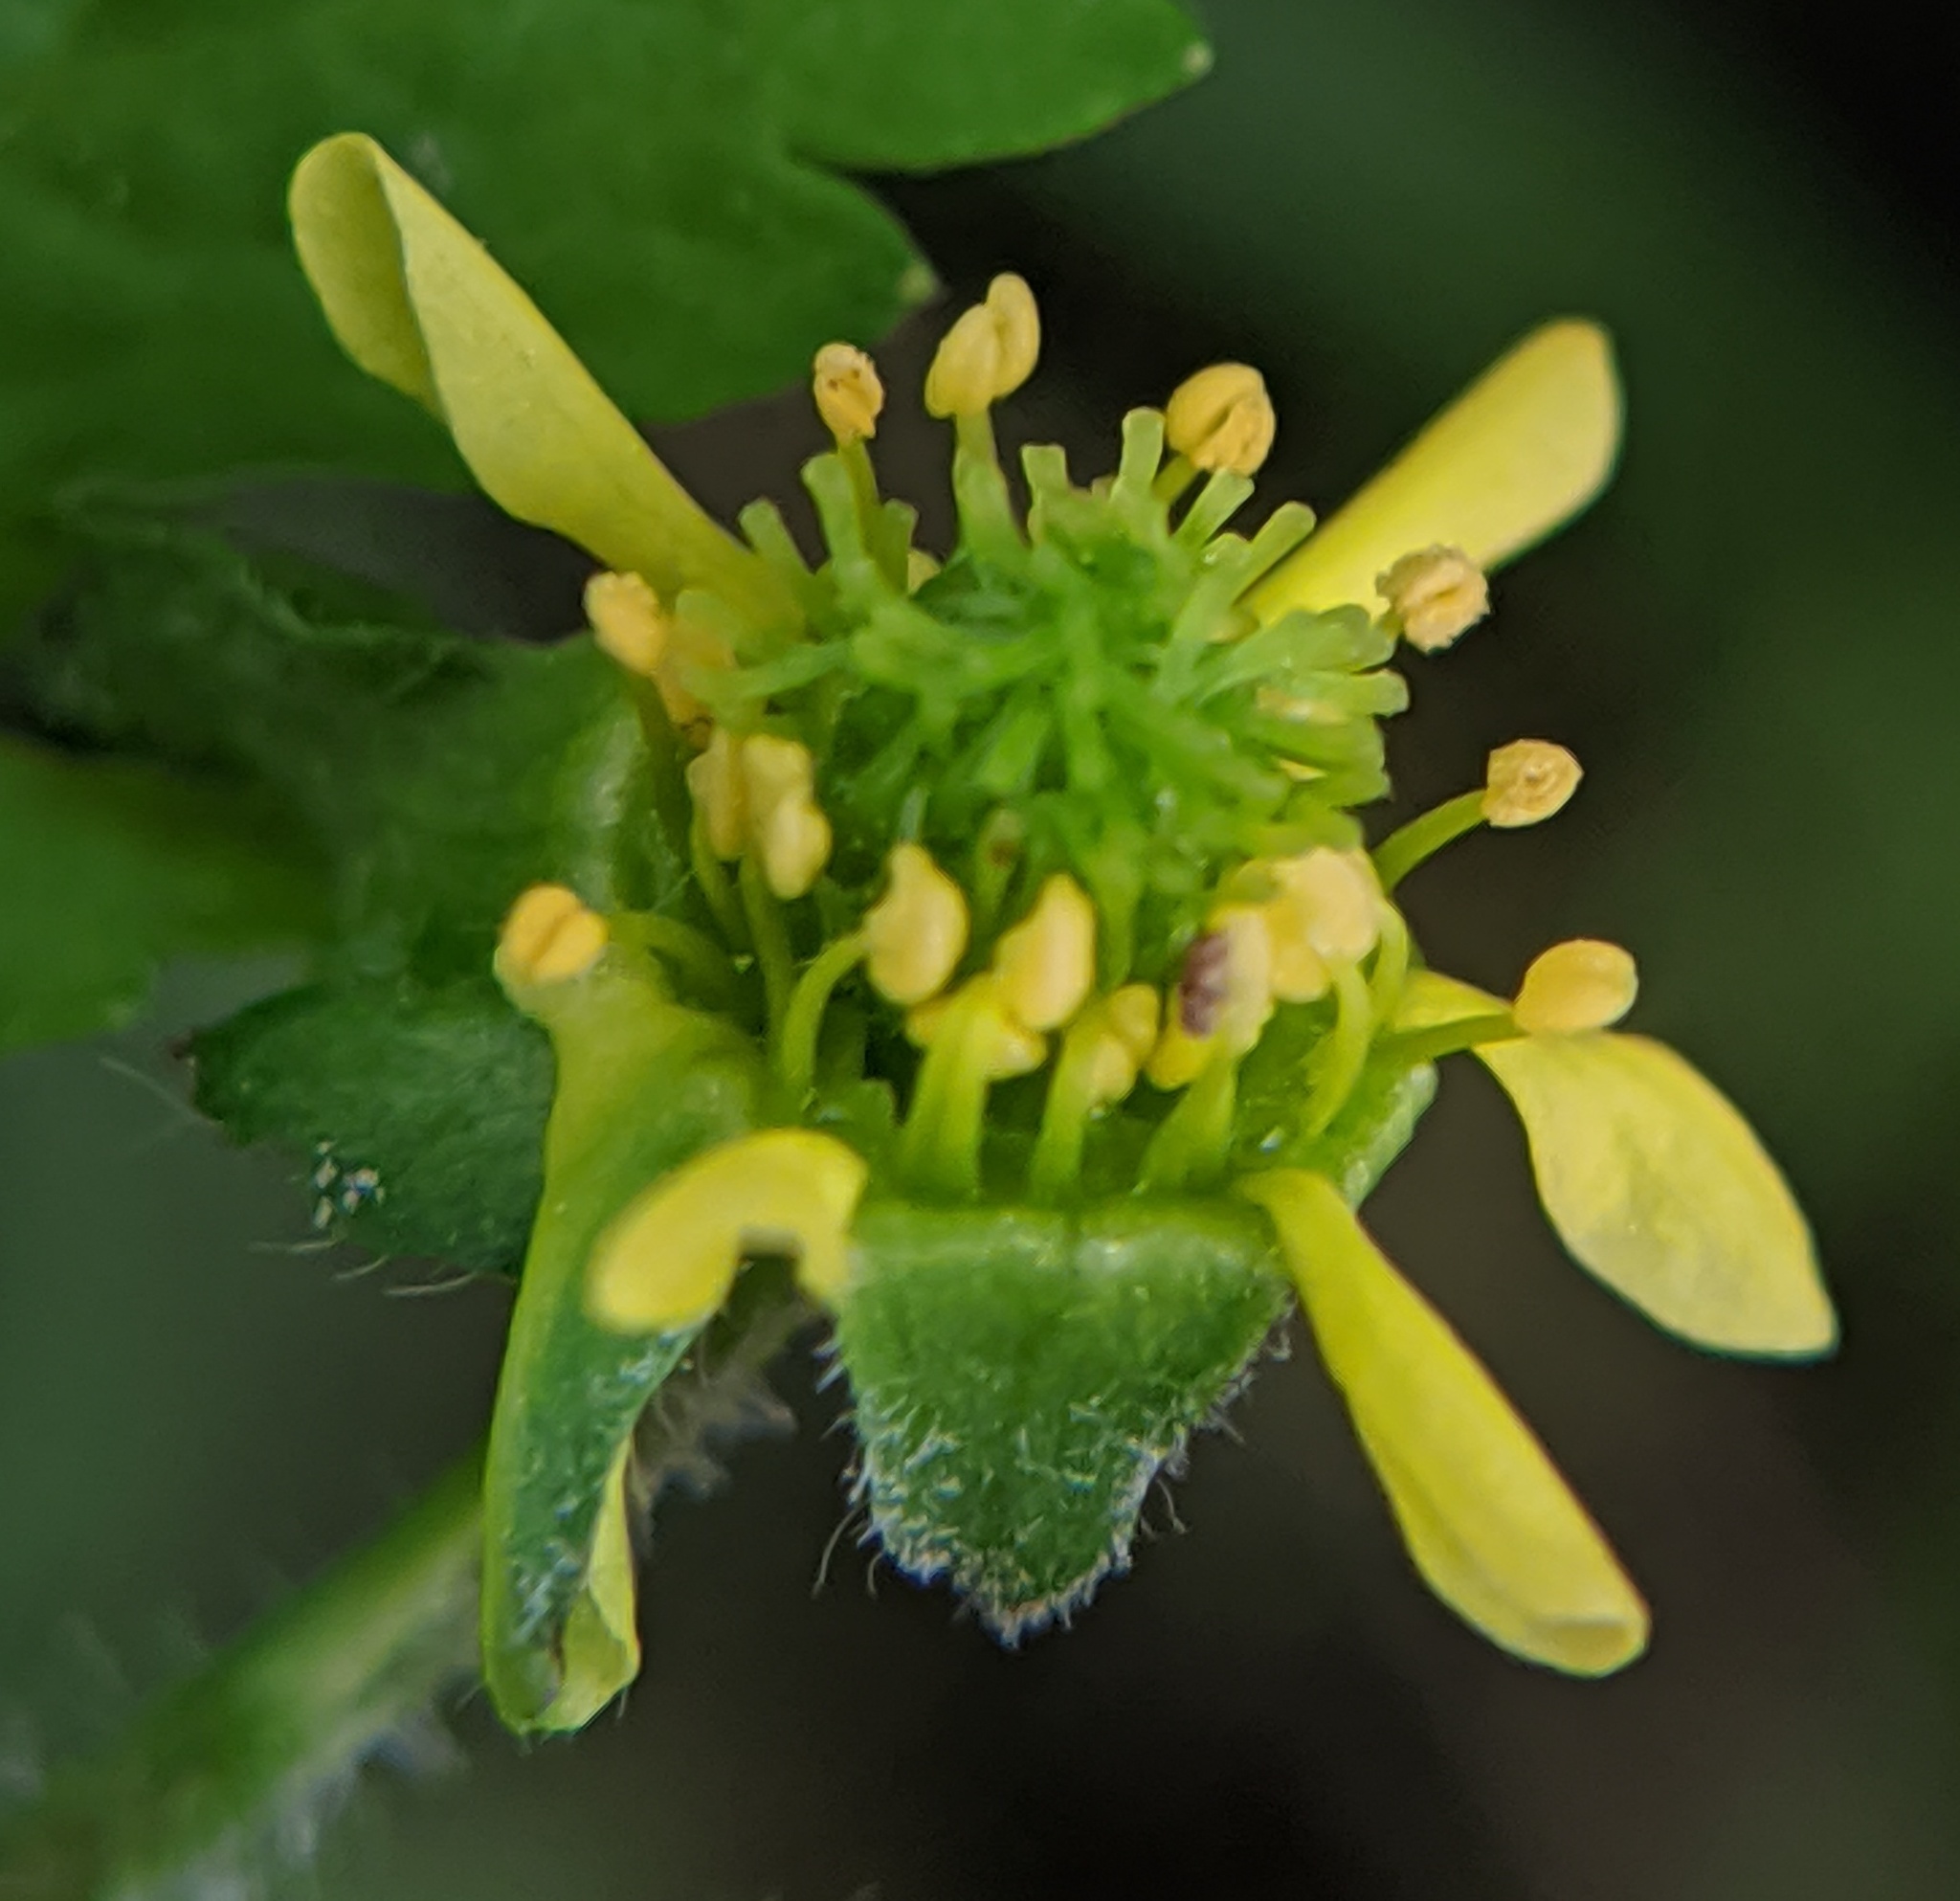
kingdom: Plantae
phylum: Tracheophyta
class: Magnoliopsida
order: Rosales
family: Rosaceae
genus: Geum
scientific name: Geum vernum
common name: Spring avens
